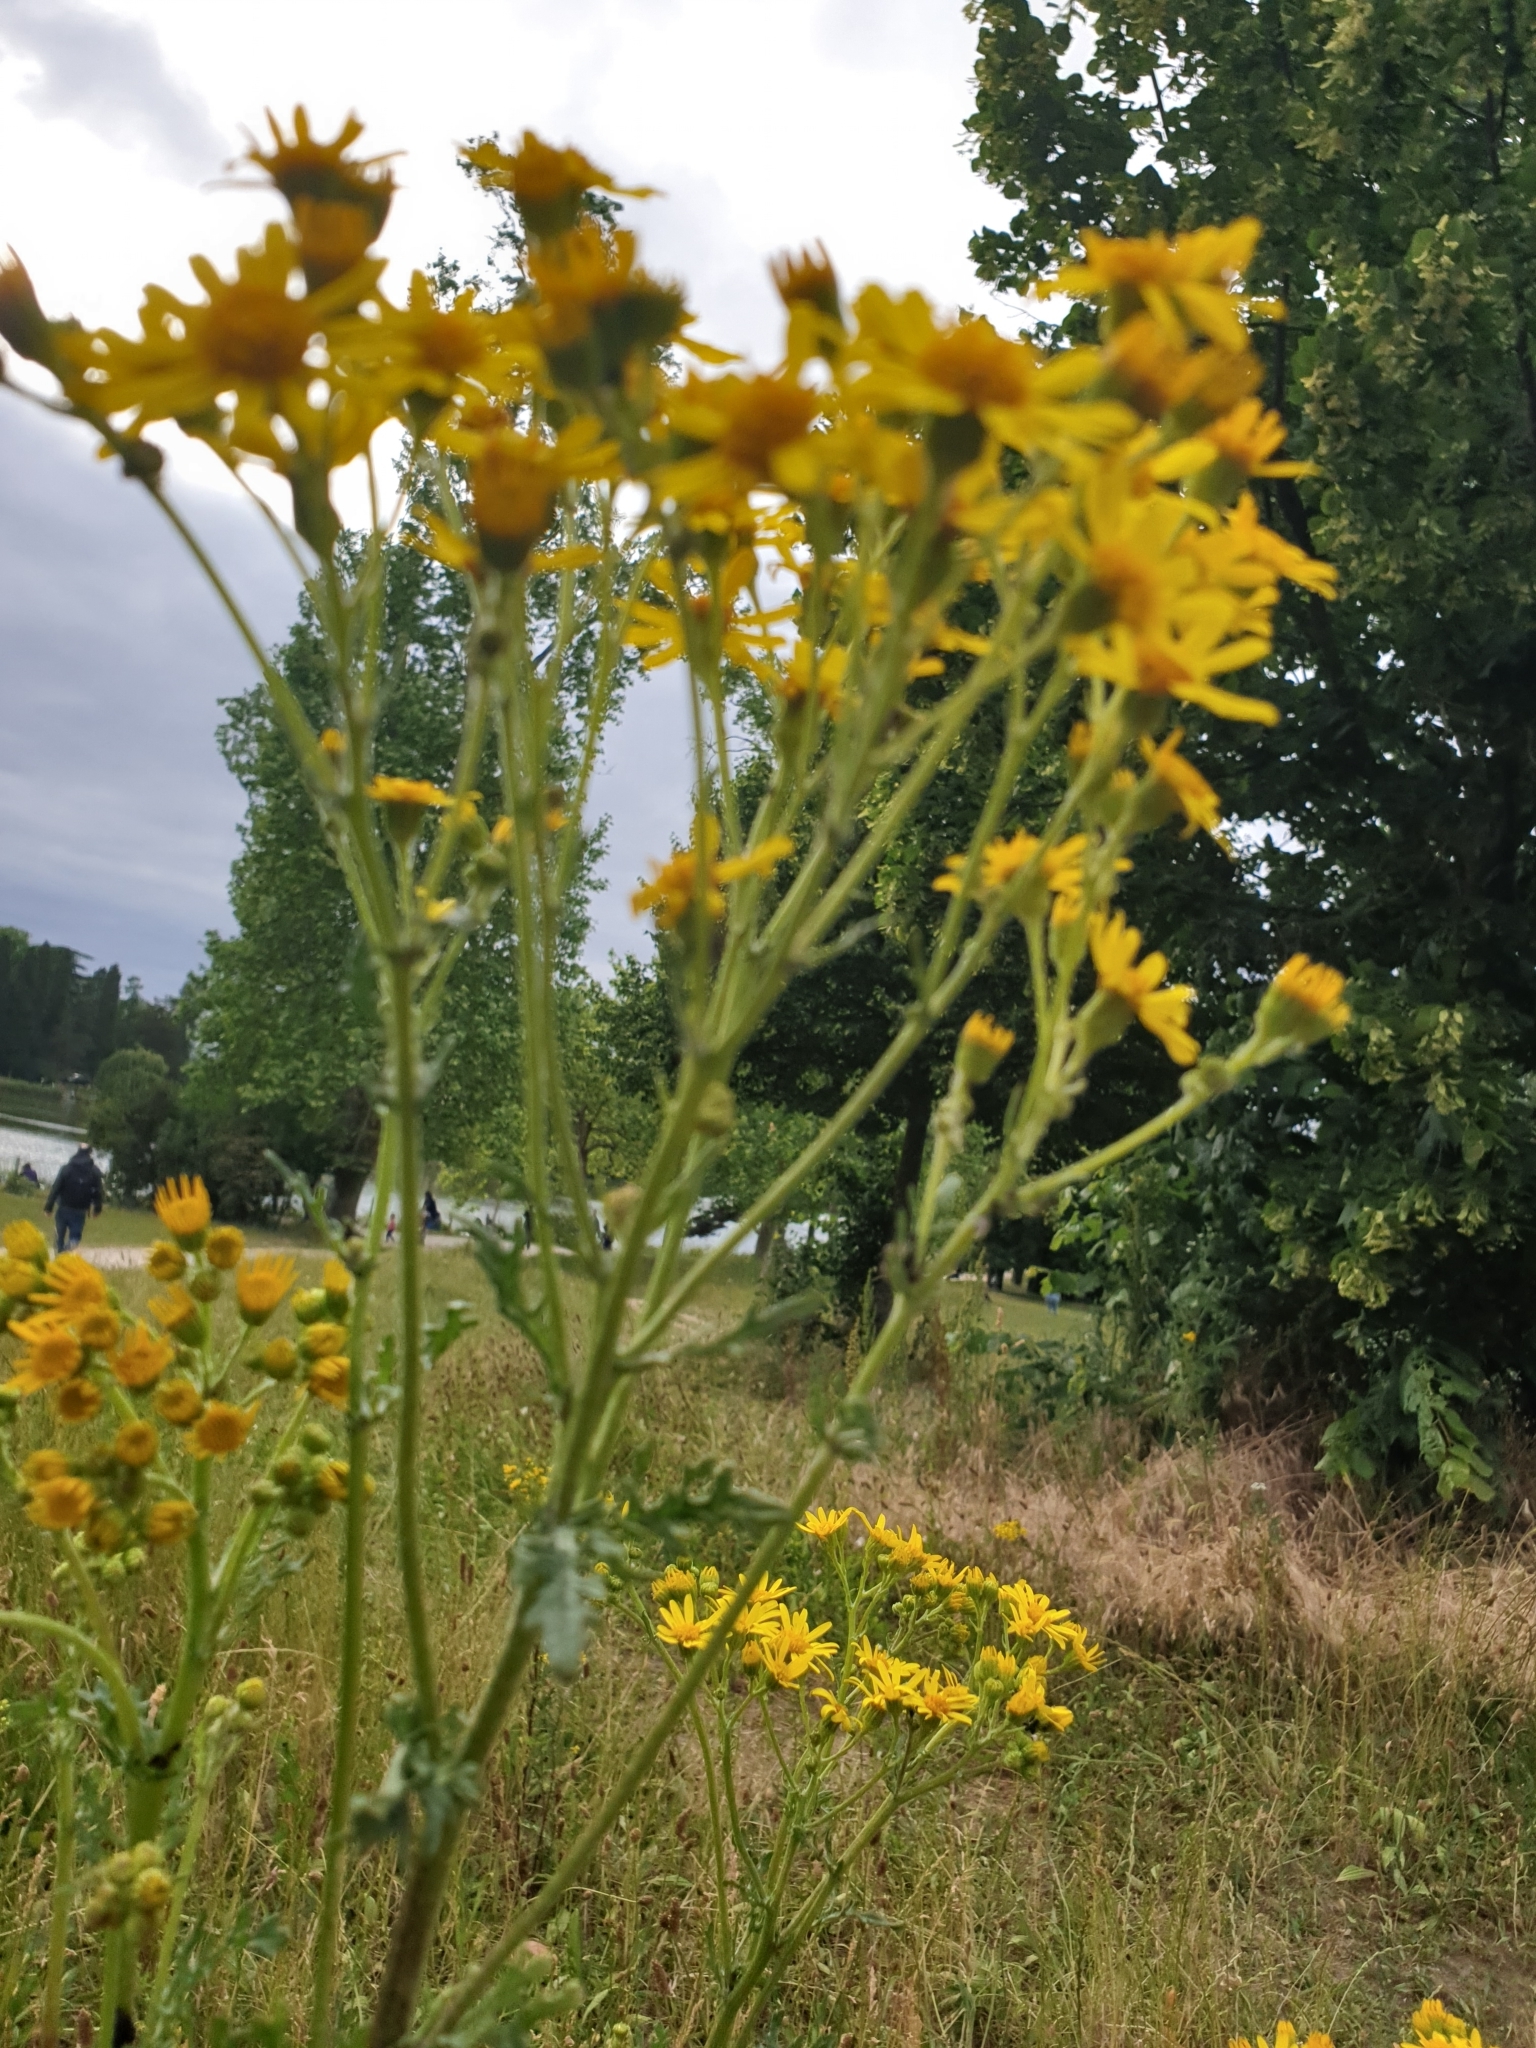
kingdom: Plantae
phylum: Tracheophyta
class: Magnoliopsida
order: Asterales
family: Asteraceae
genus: Jacobaea
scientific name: Jacobaea vulgaris
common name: Stinking willie
